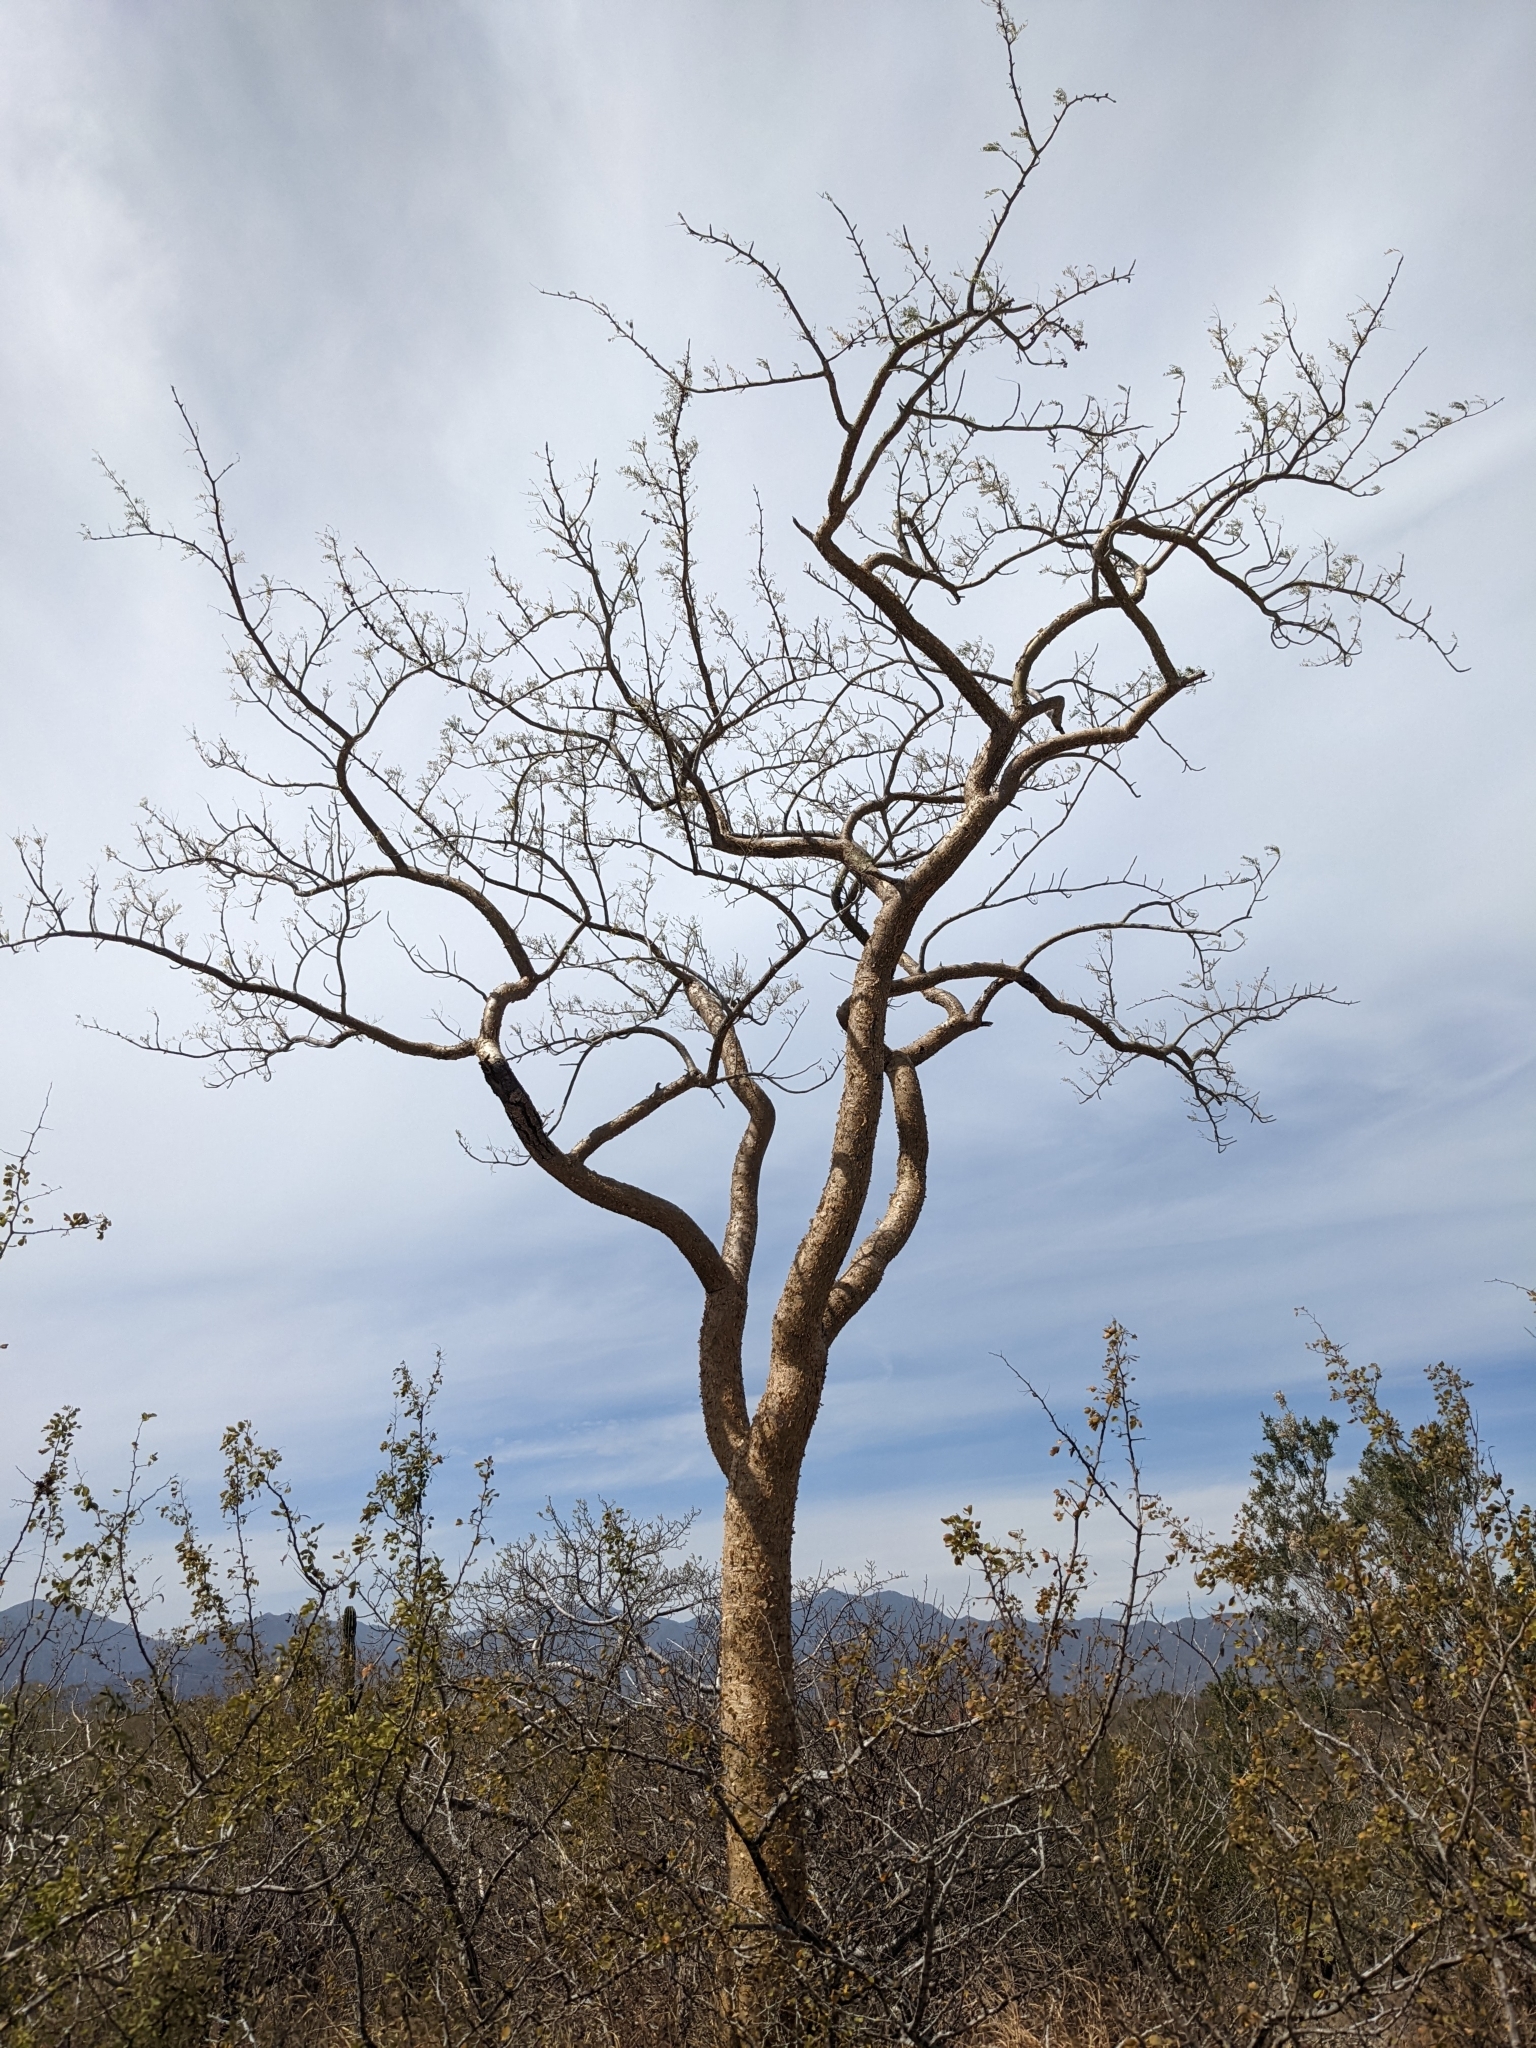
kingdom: Plantae
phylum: Tracheophyta
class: Magnoliopsida
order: Sapindales
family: Burseraceae
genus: Bursera
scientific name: Bursera microphylla
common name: Elephant tree
